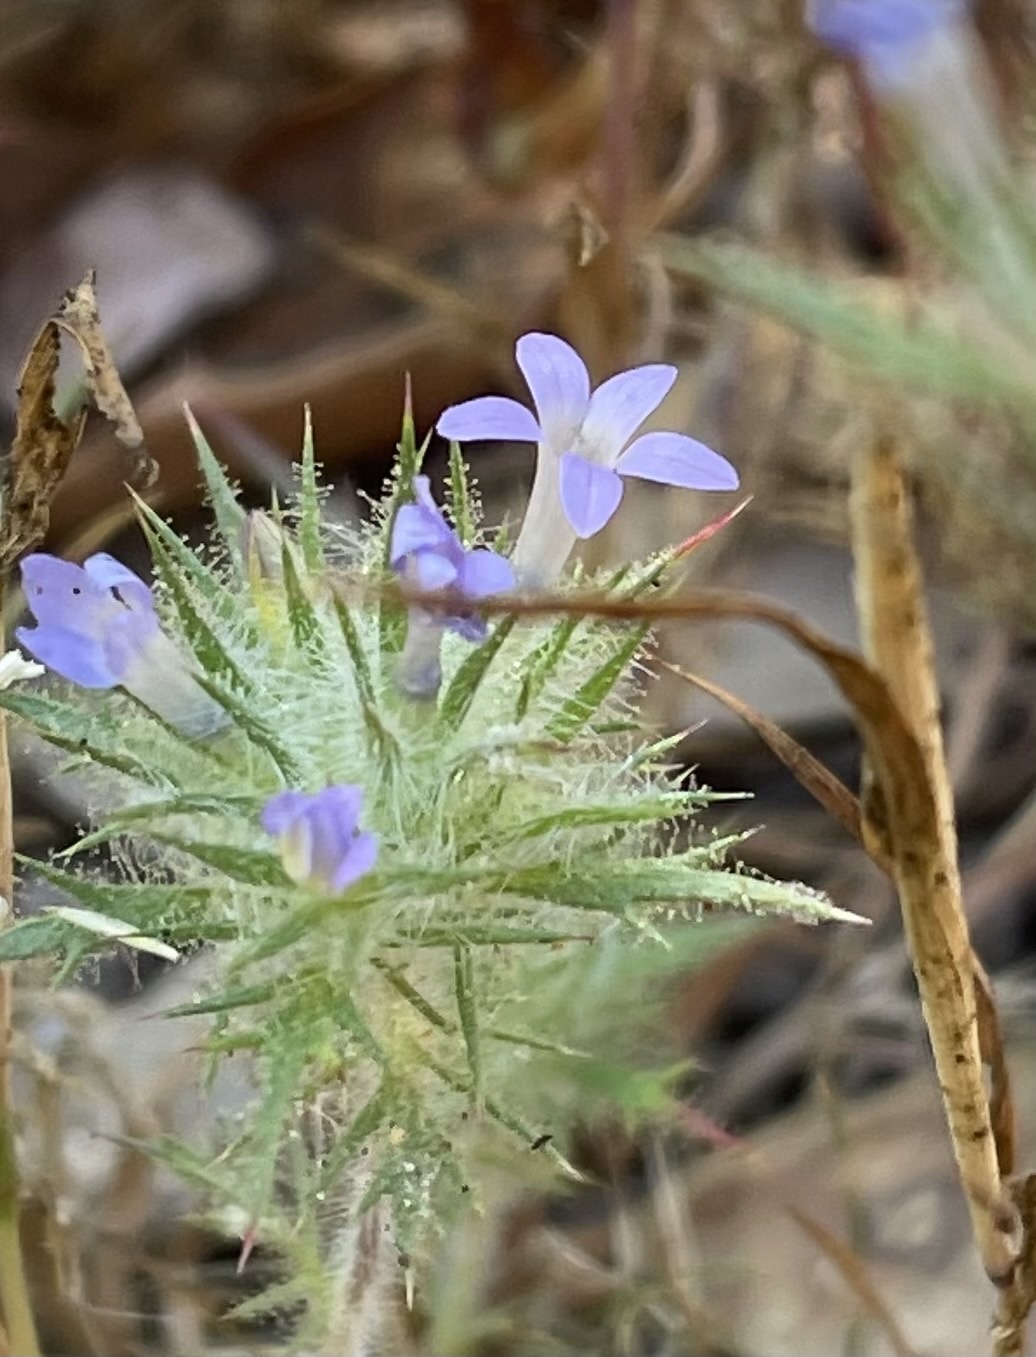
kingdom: Plantae
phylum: Tracheophyta
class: Magnoliopsida
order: Ericales
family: Polemoniaceae
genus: Navarretia
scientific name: Navarretia squarrosa
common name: Skunkweed
